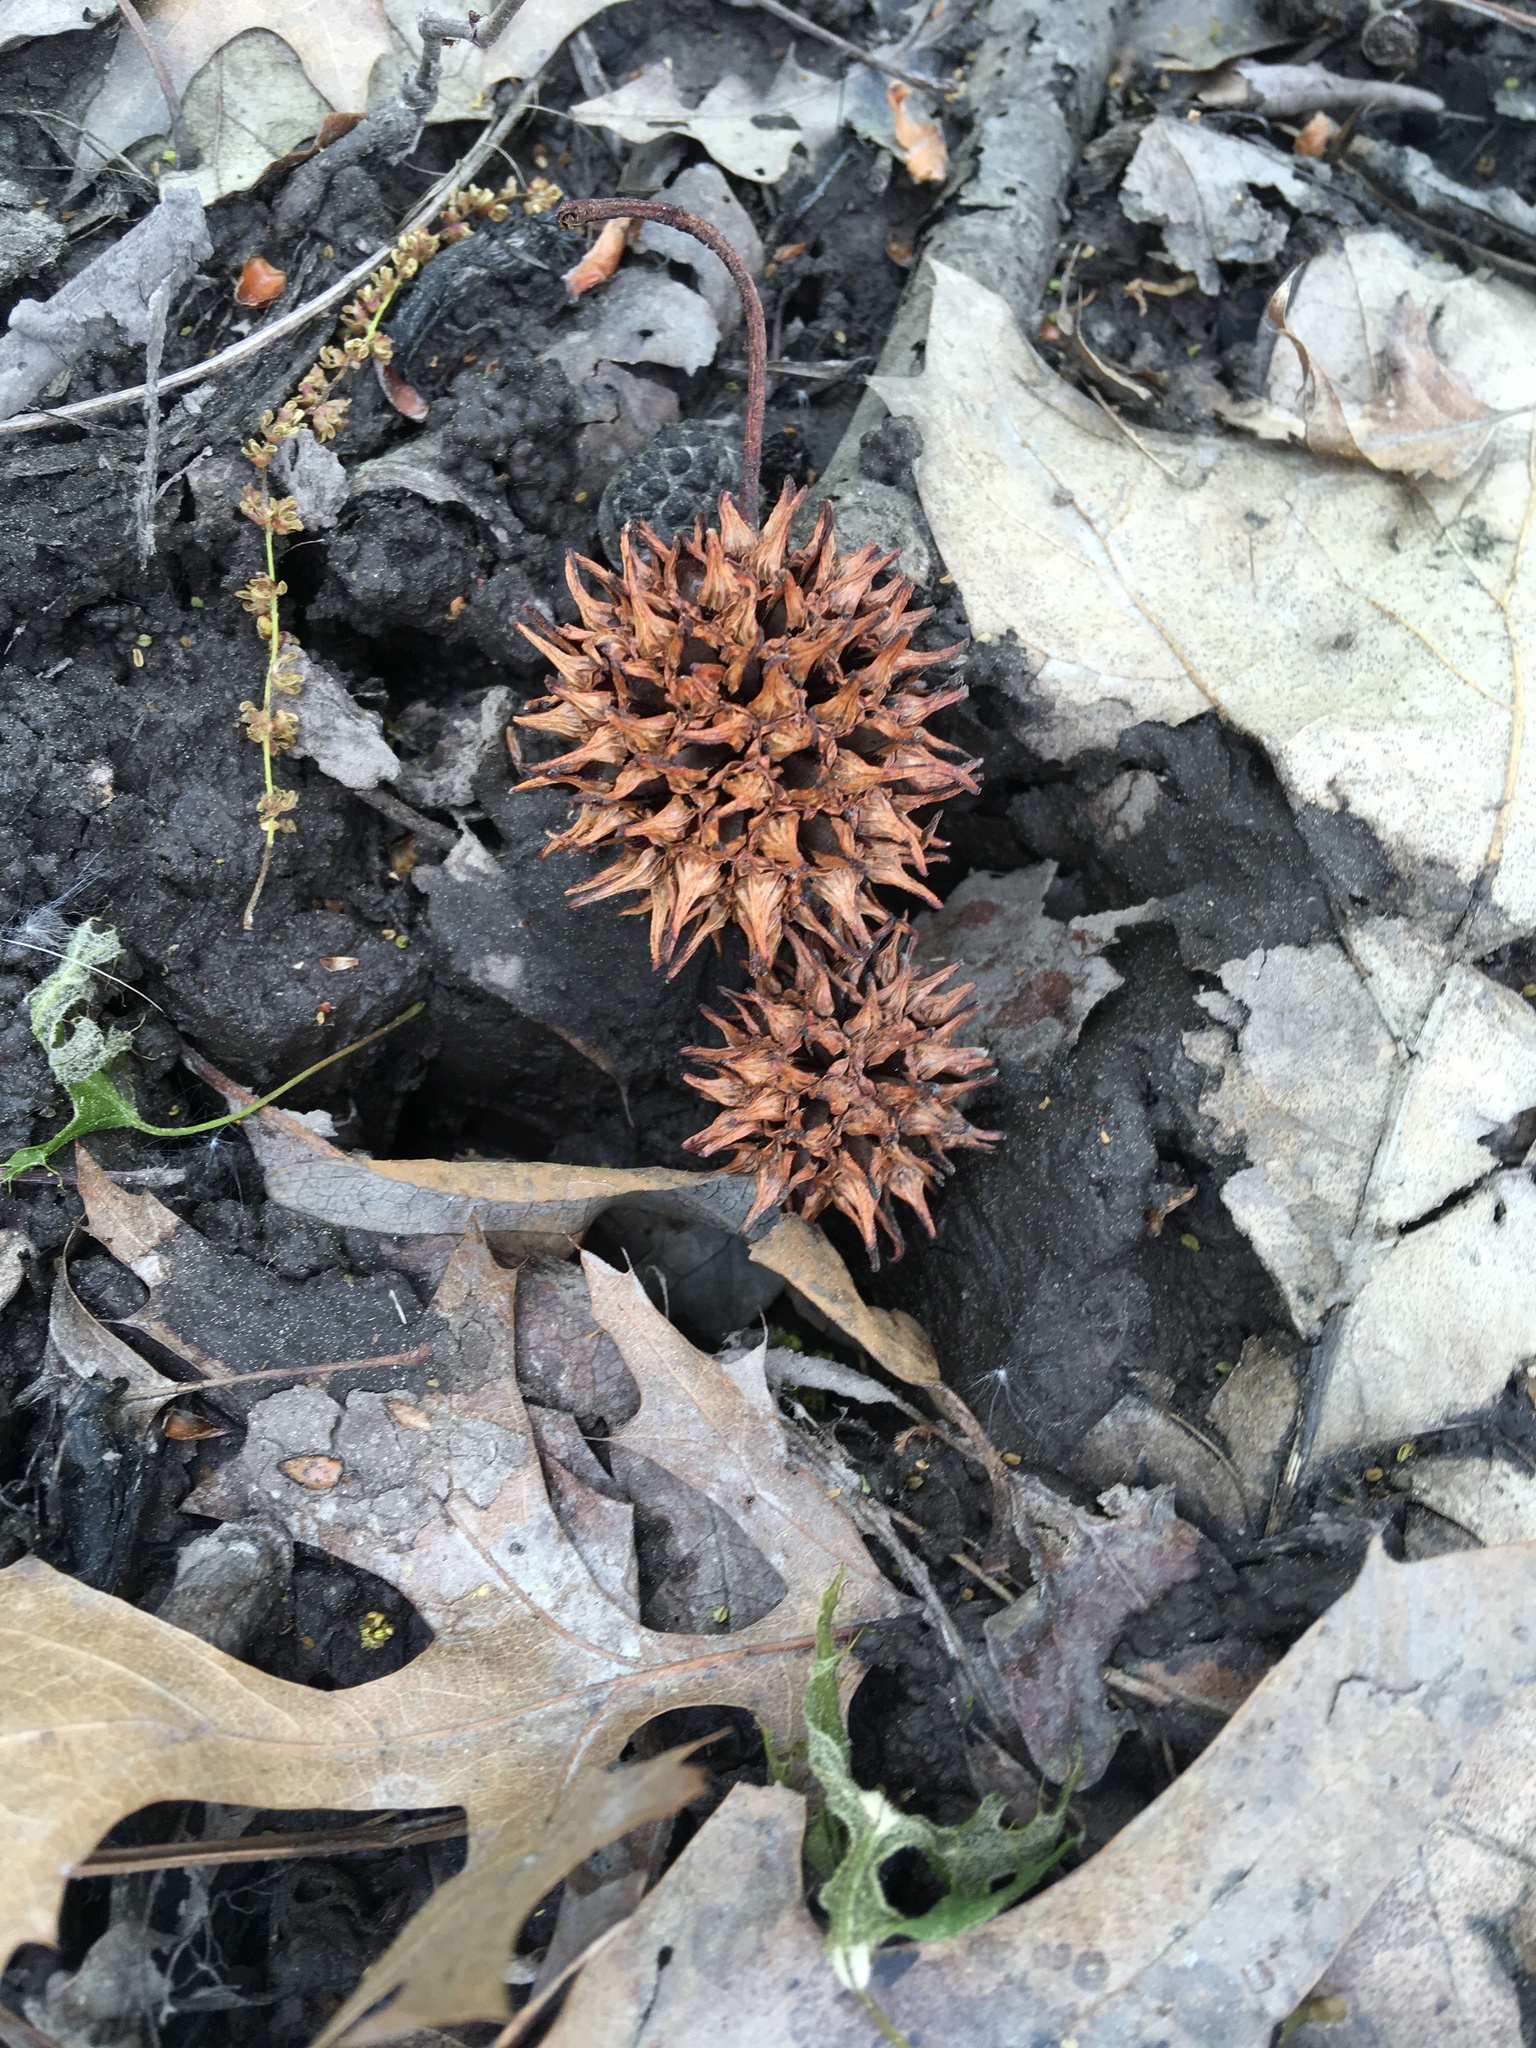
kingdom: Plantae
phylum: Tracheophyta
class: Magnoliopsida
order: Saxifragales
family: Altingiaceae
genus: Liquidambar
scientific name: Liquidambar styraciflua
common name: Sweet gum
